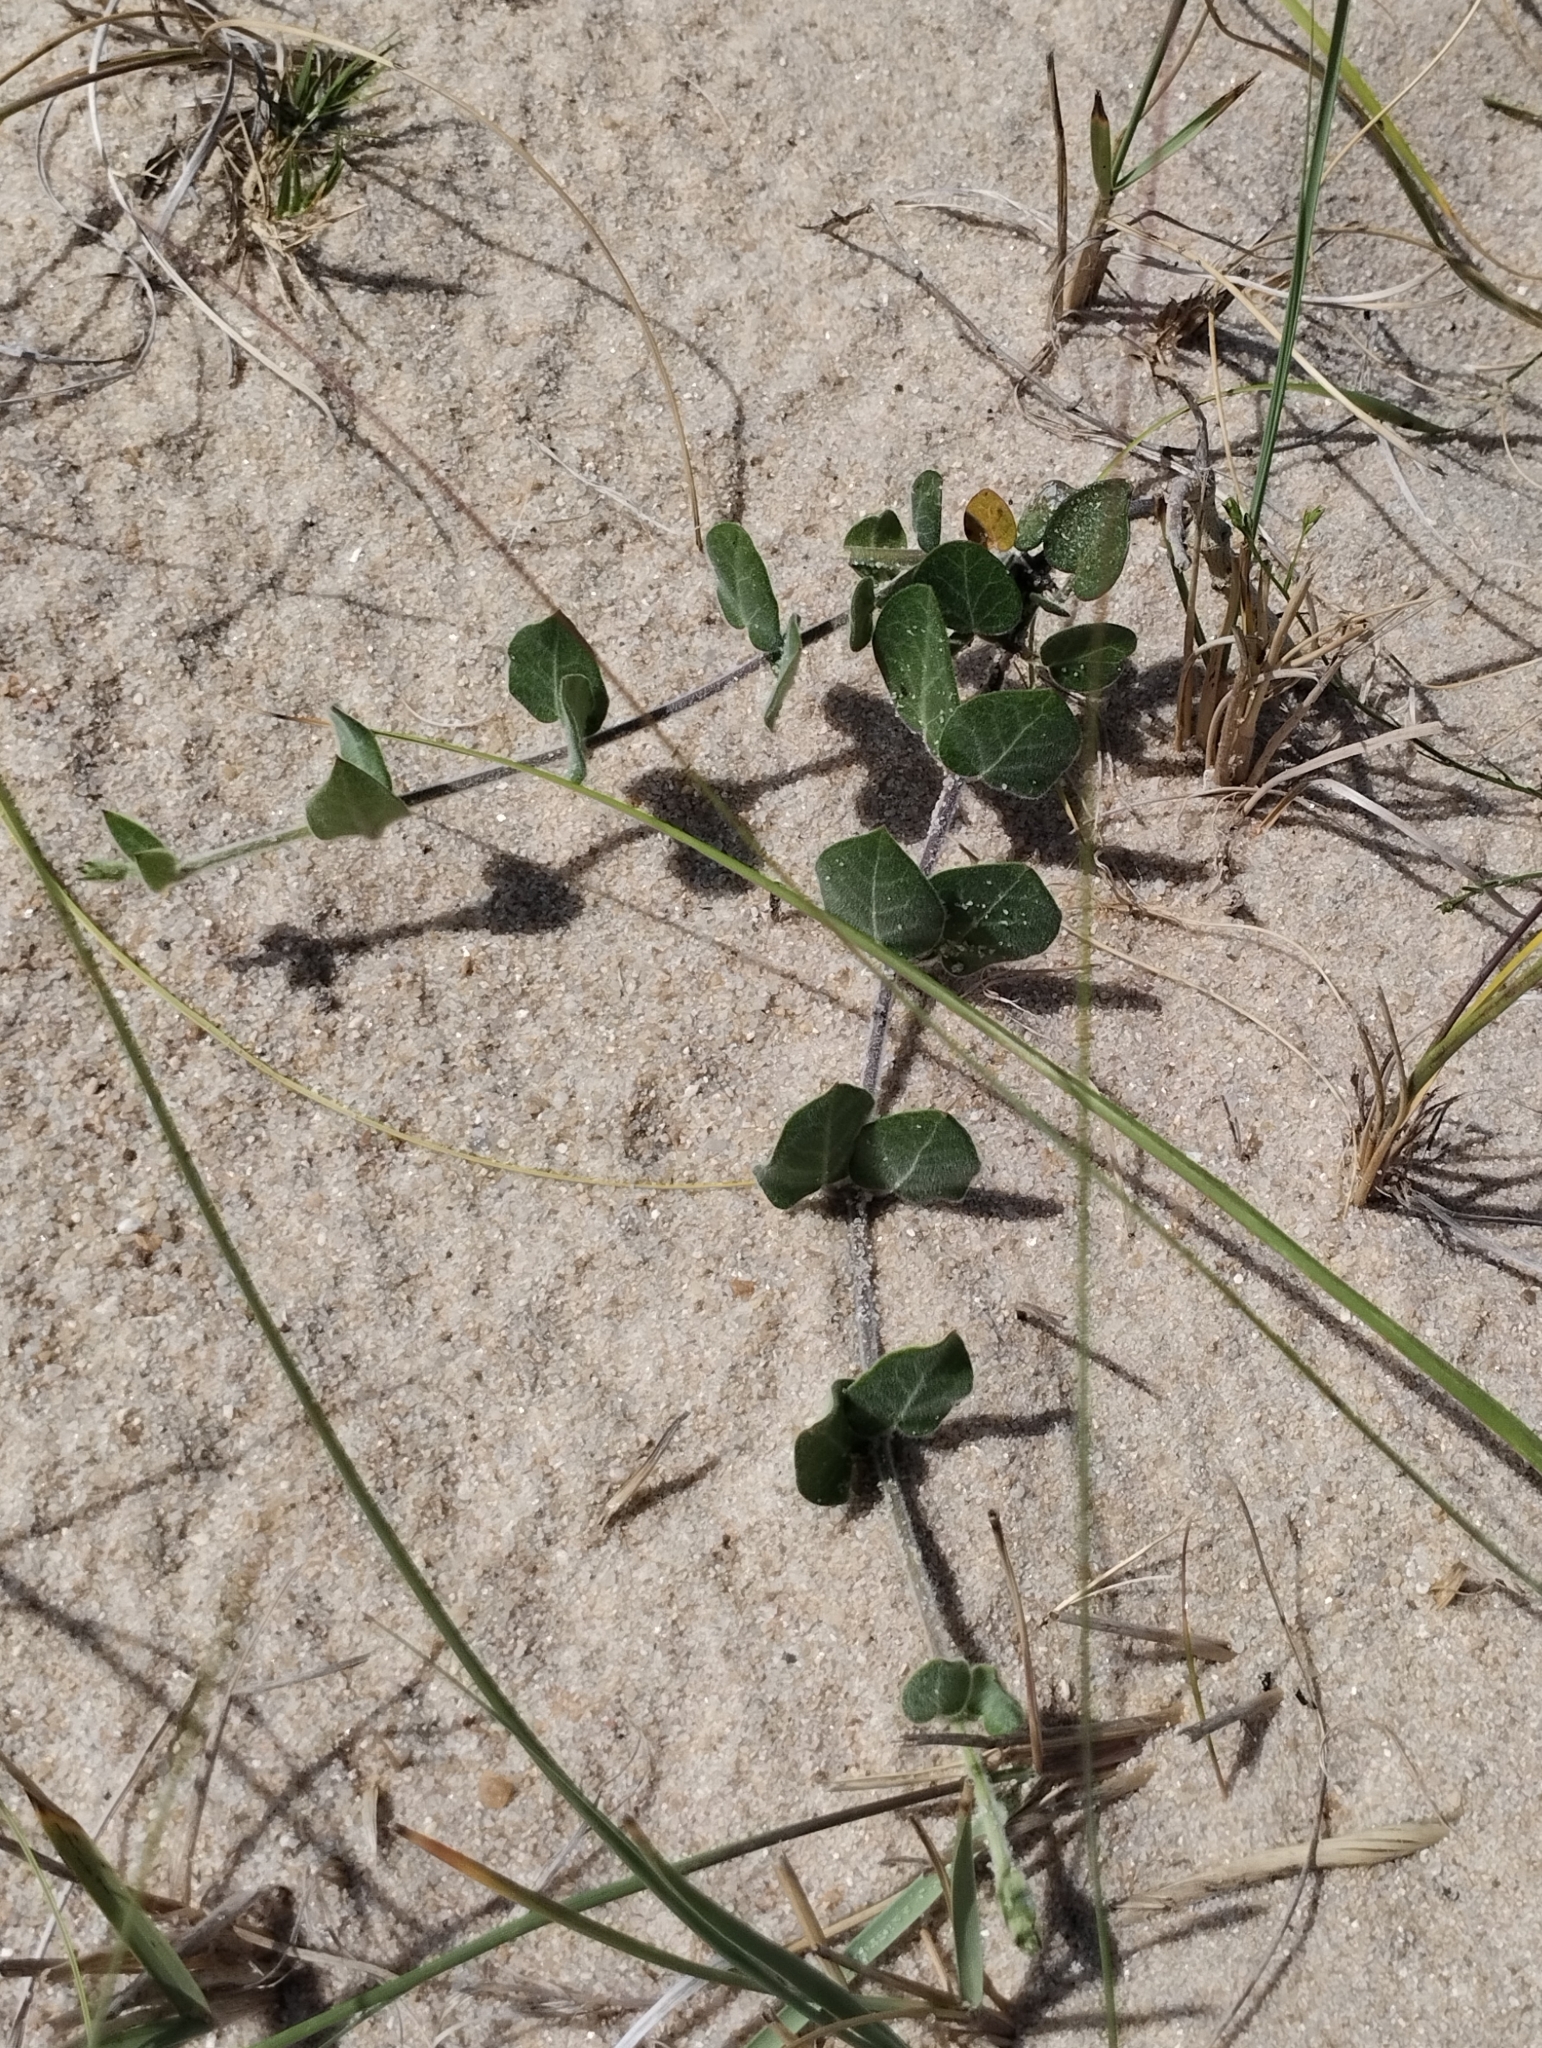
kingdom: Plantae
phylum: Tracheophyta
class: Magnoliopsida
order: Gentianales
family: Apocynaceae
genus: Oxypetalum
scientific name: Oxypetalum tomentosum
